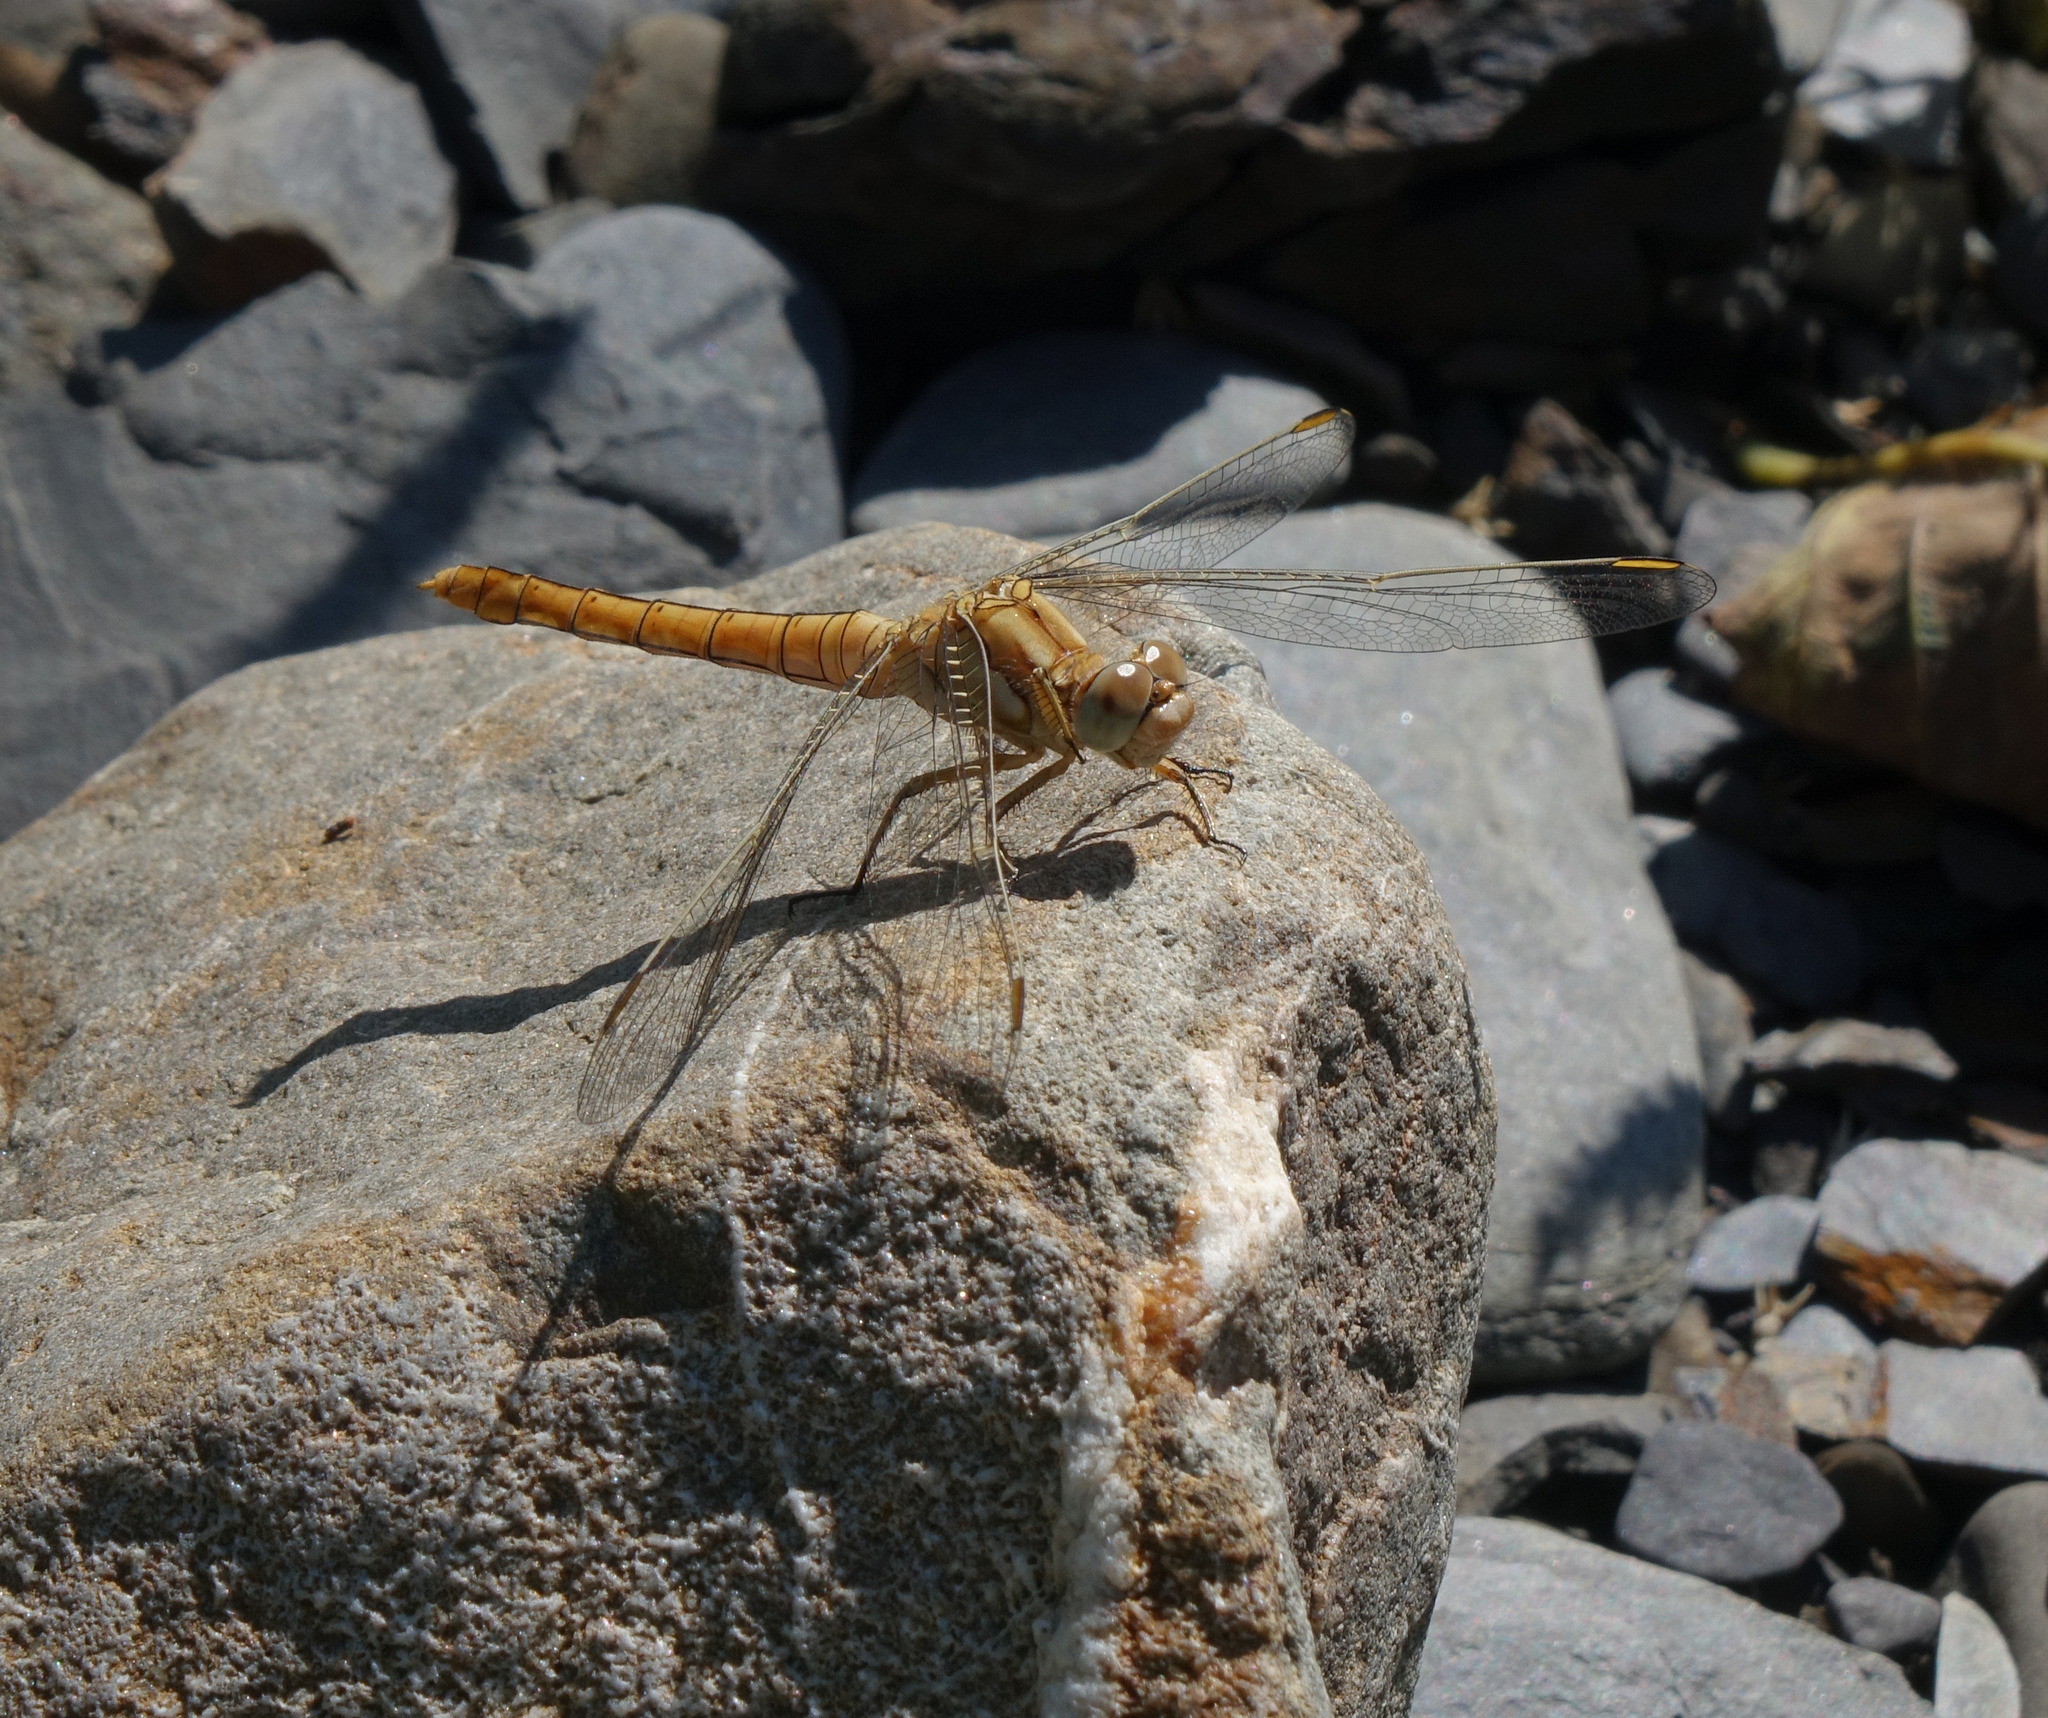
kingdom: Animalia
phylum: Arthropoda
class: Insecta
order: Odonata
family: Libellulidae
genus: Orthetrum
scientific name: Orthetrum brunneum
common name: Southern skimmer
